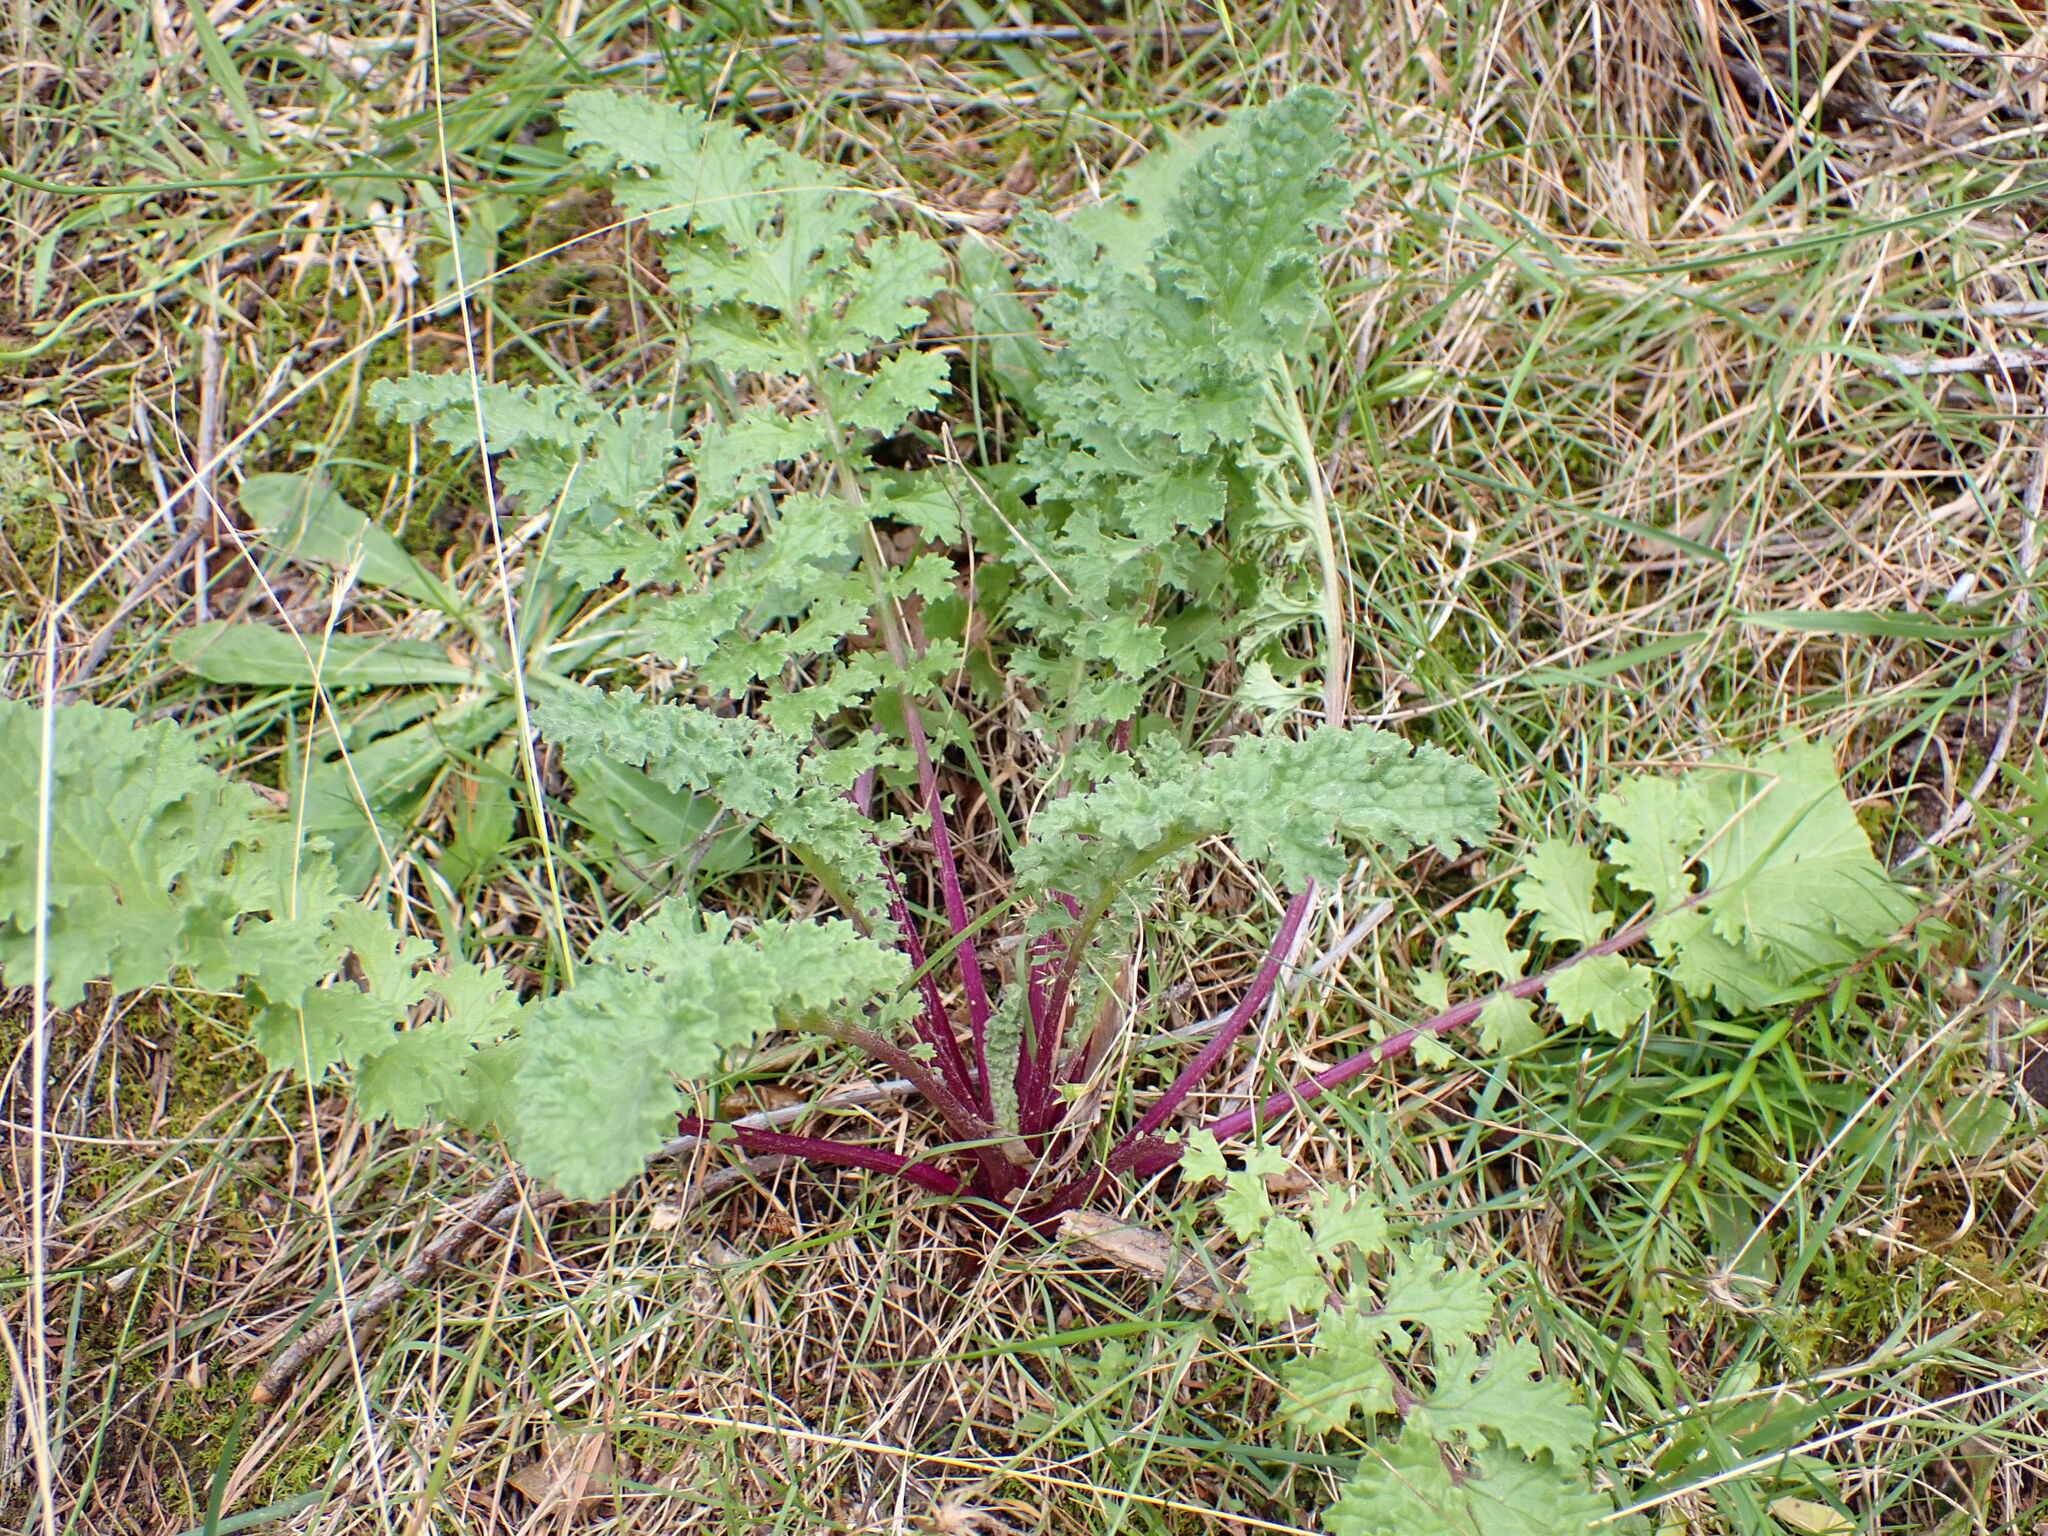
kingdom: Plantae
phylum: Tracheophyta
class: Magnoliopsida
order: Asterales
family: Asteraceae
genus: Jacobaea
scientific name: Jacobaea vulgaris
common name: Stinking willie
